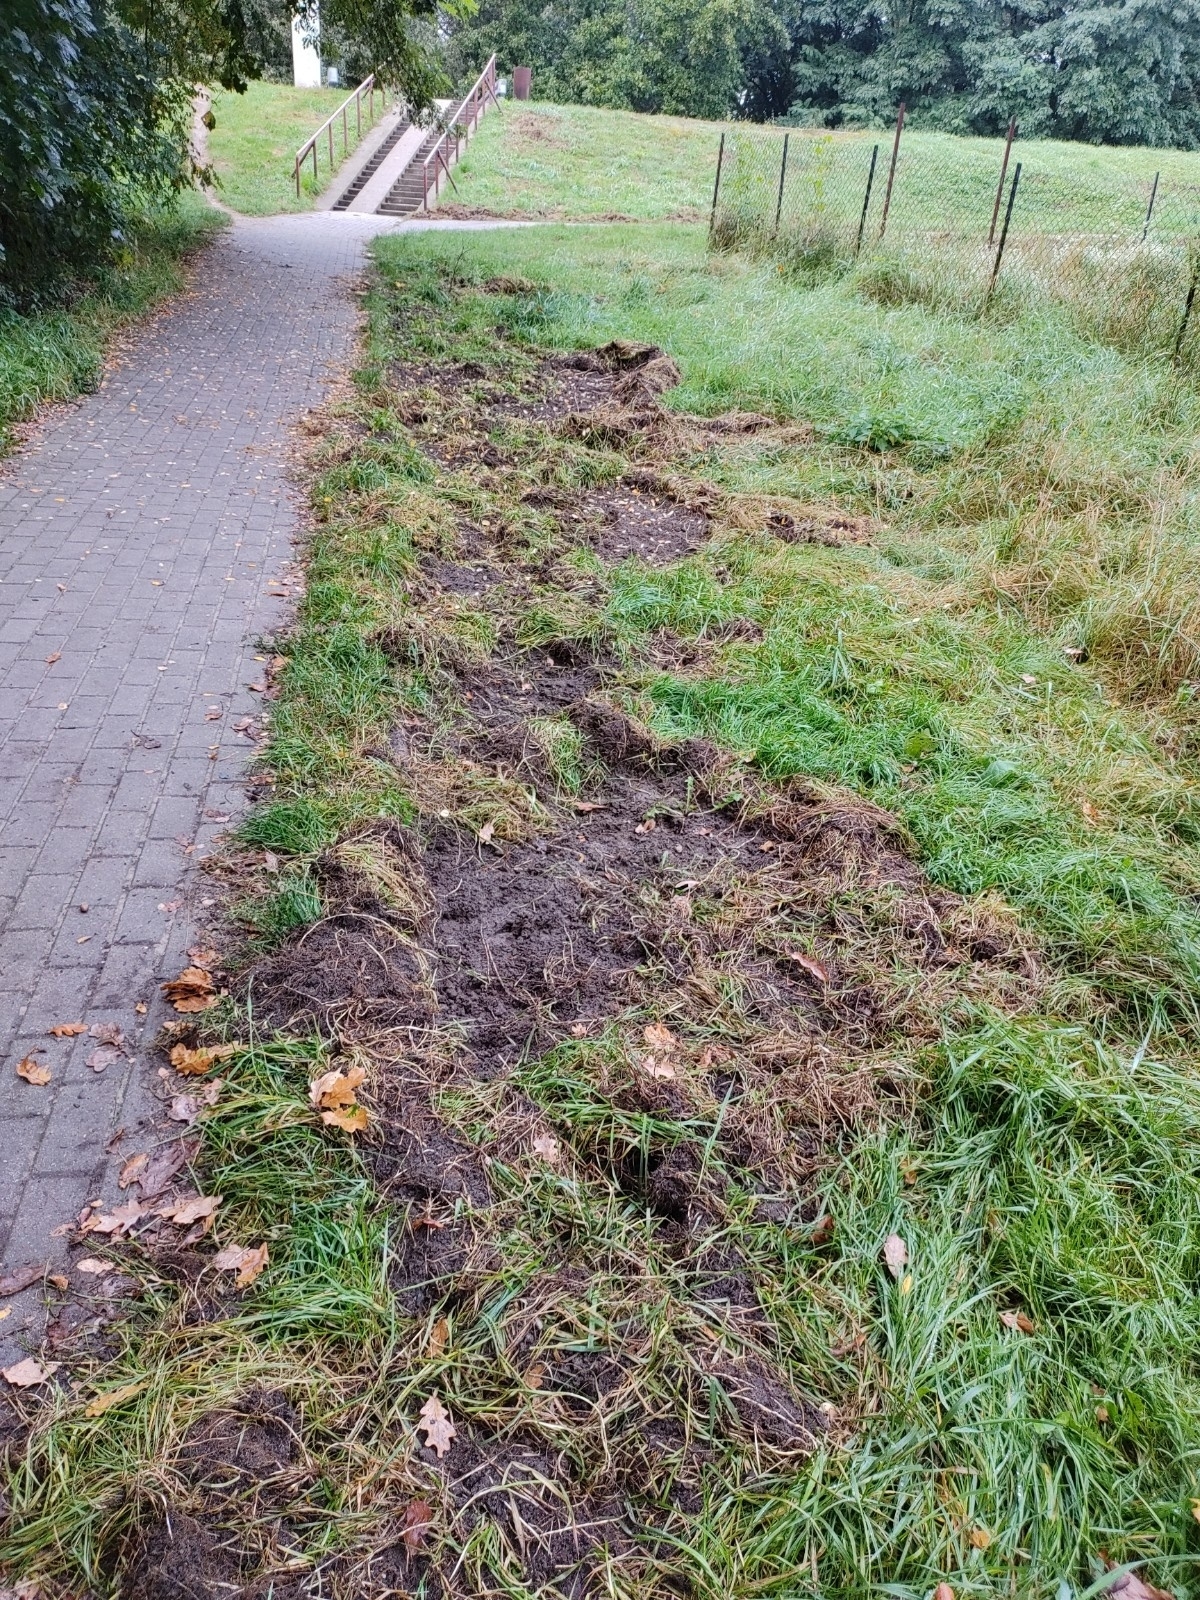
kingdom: Animalia
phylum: Chordata
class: Mammalia
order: Artiodactyla
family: Suidae
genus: Sus
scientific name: Sus scrofa
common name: Wild boar
